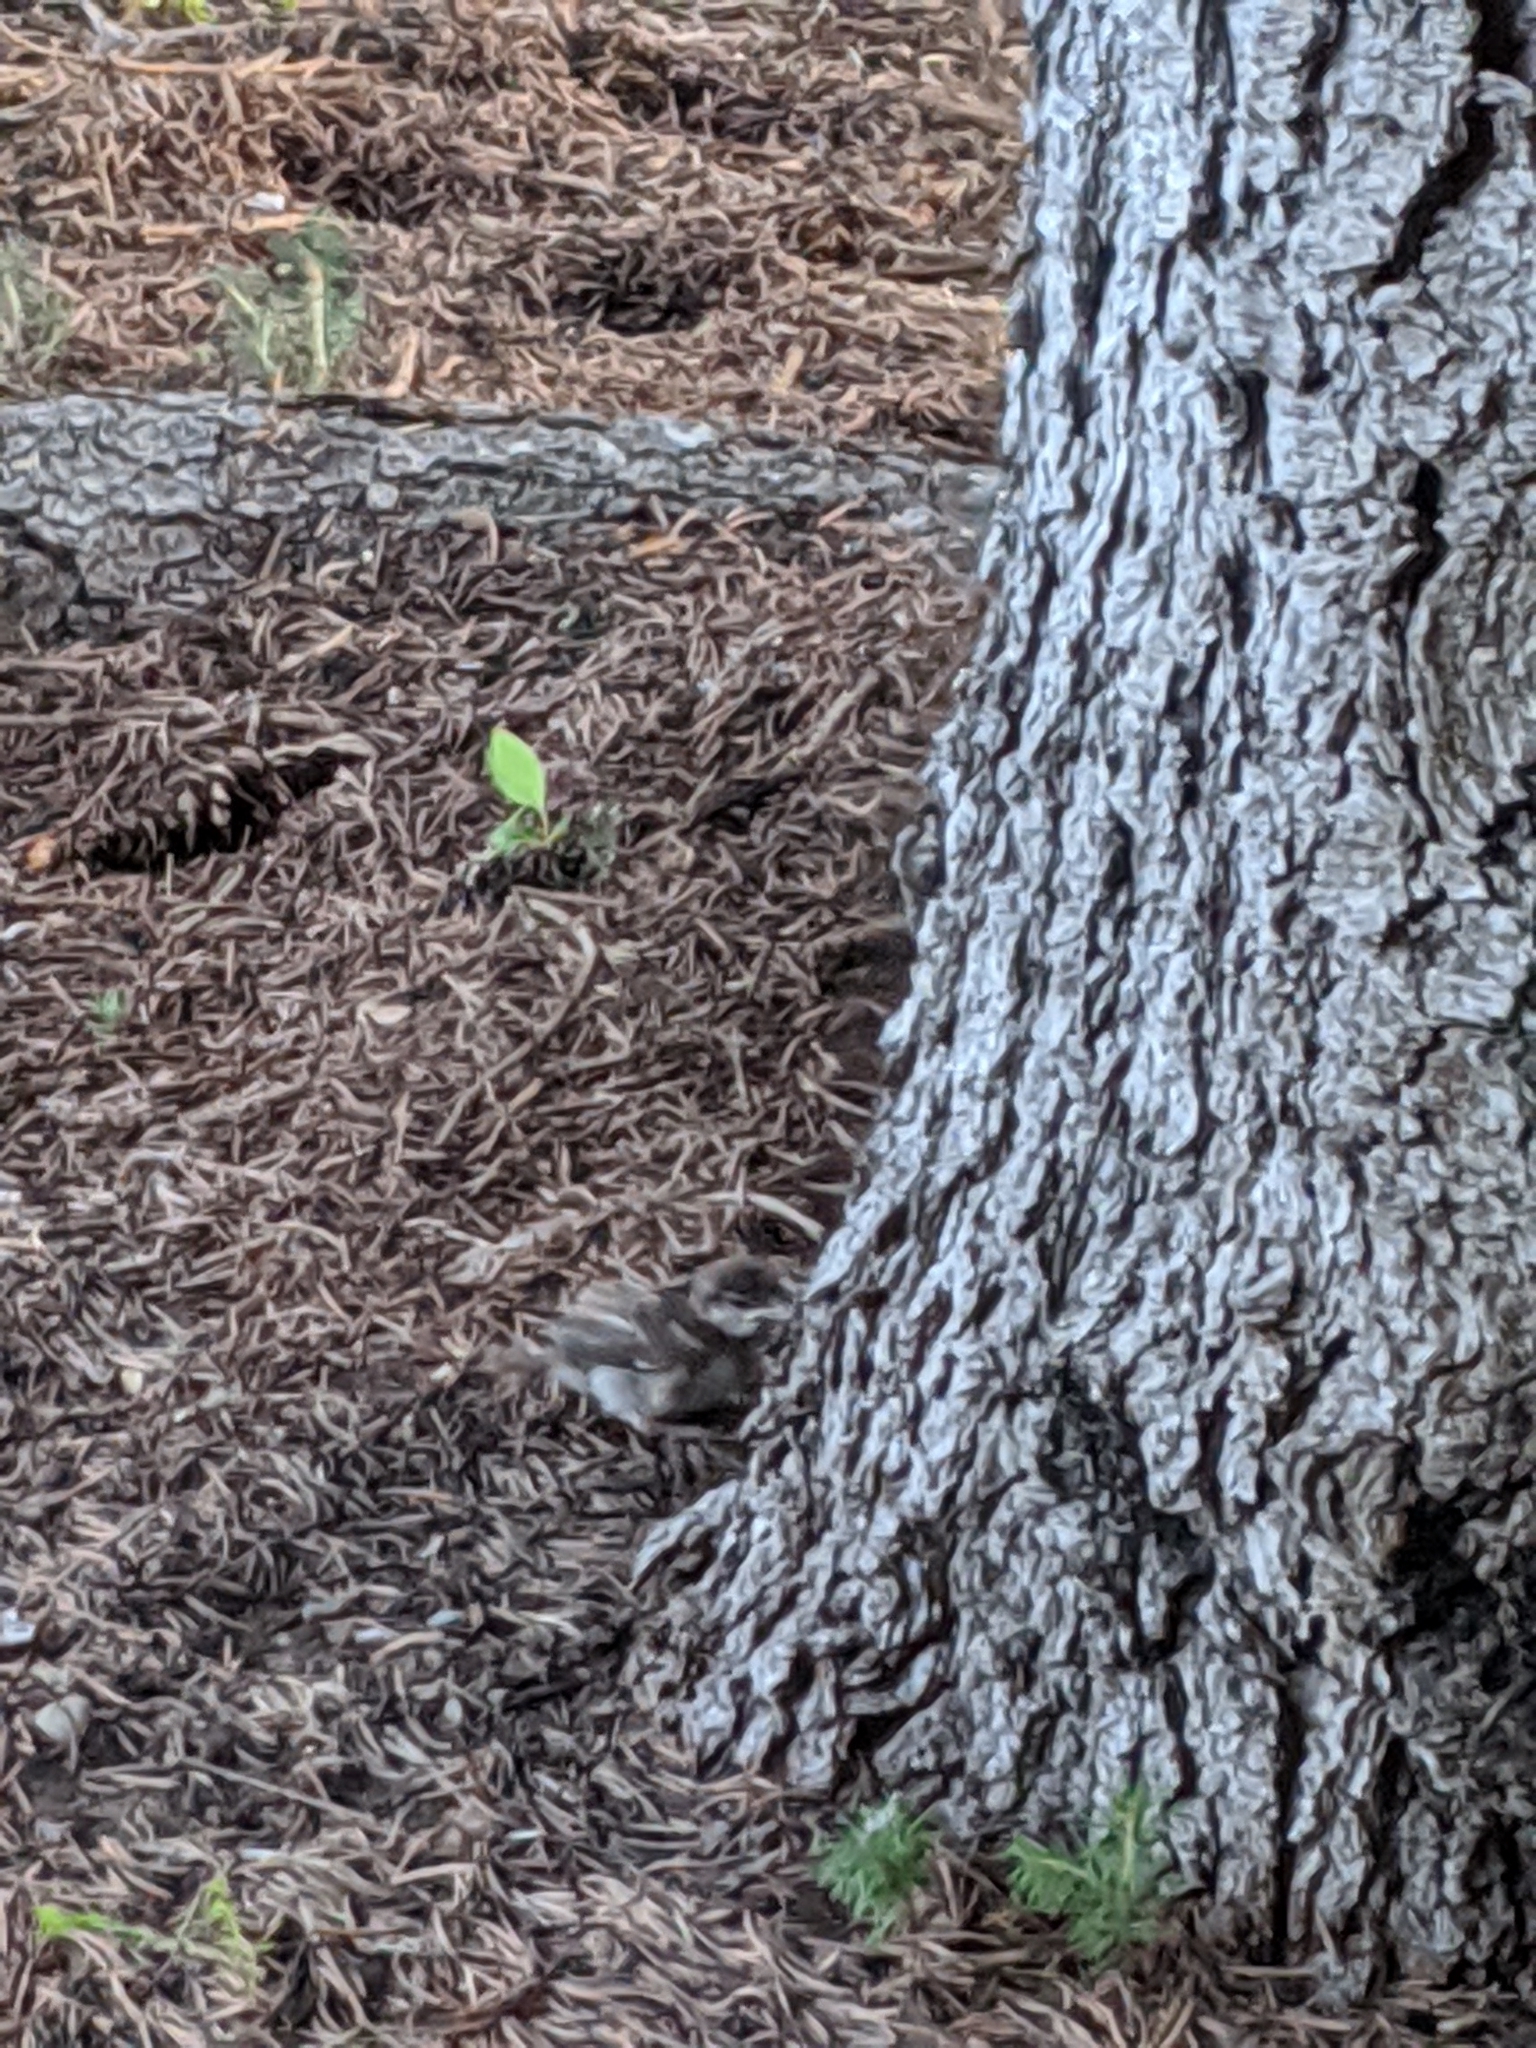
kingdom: Animalia
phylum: Chordata
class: Aves
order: Passeriformes
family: Passeridae
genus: Passer
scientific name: Passer domesticus
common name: House sparrow
